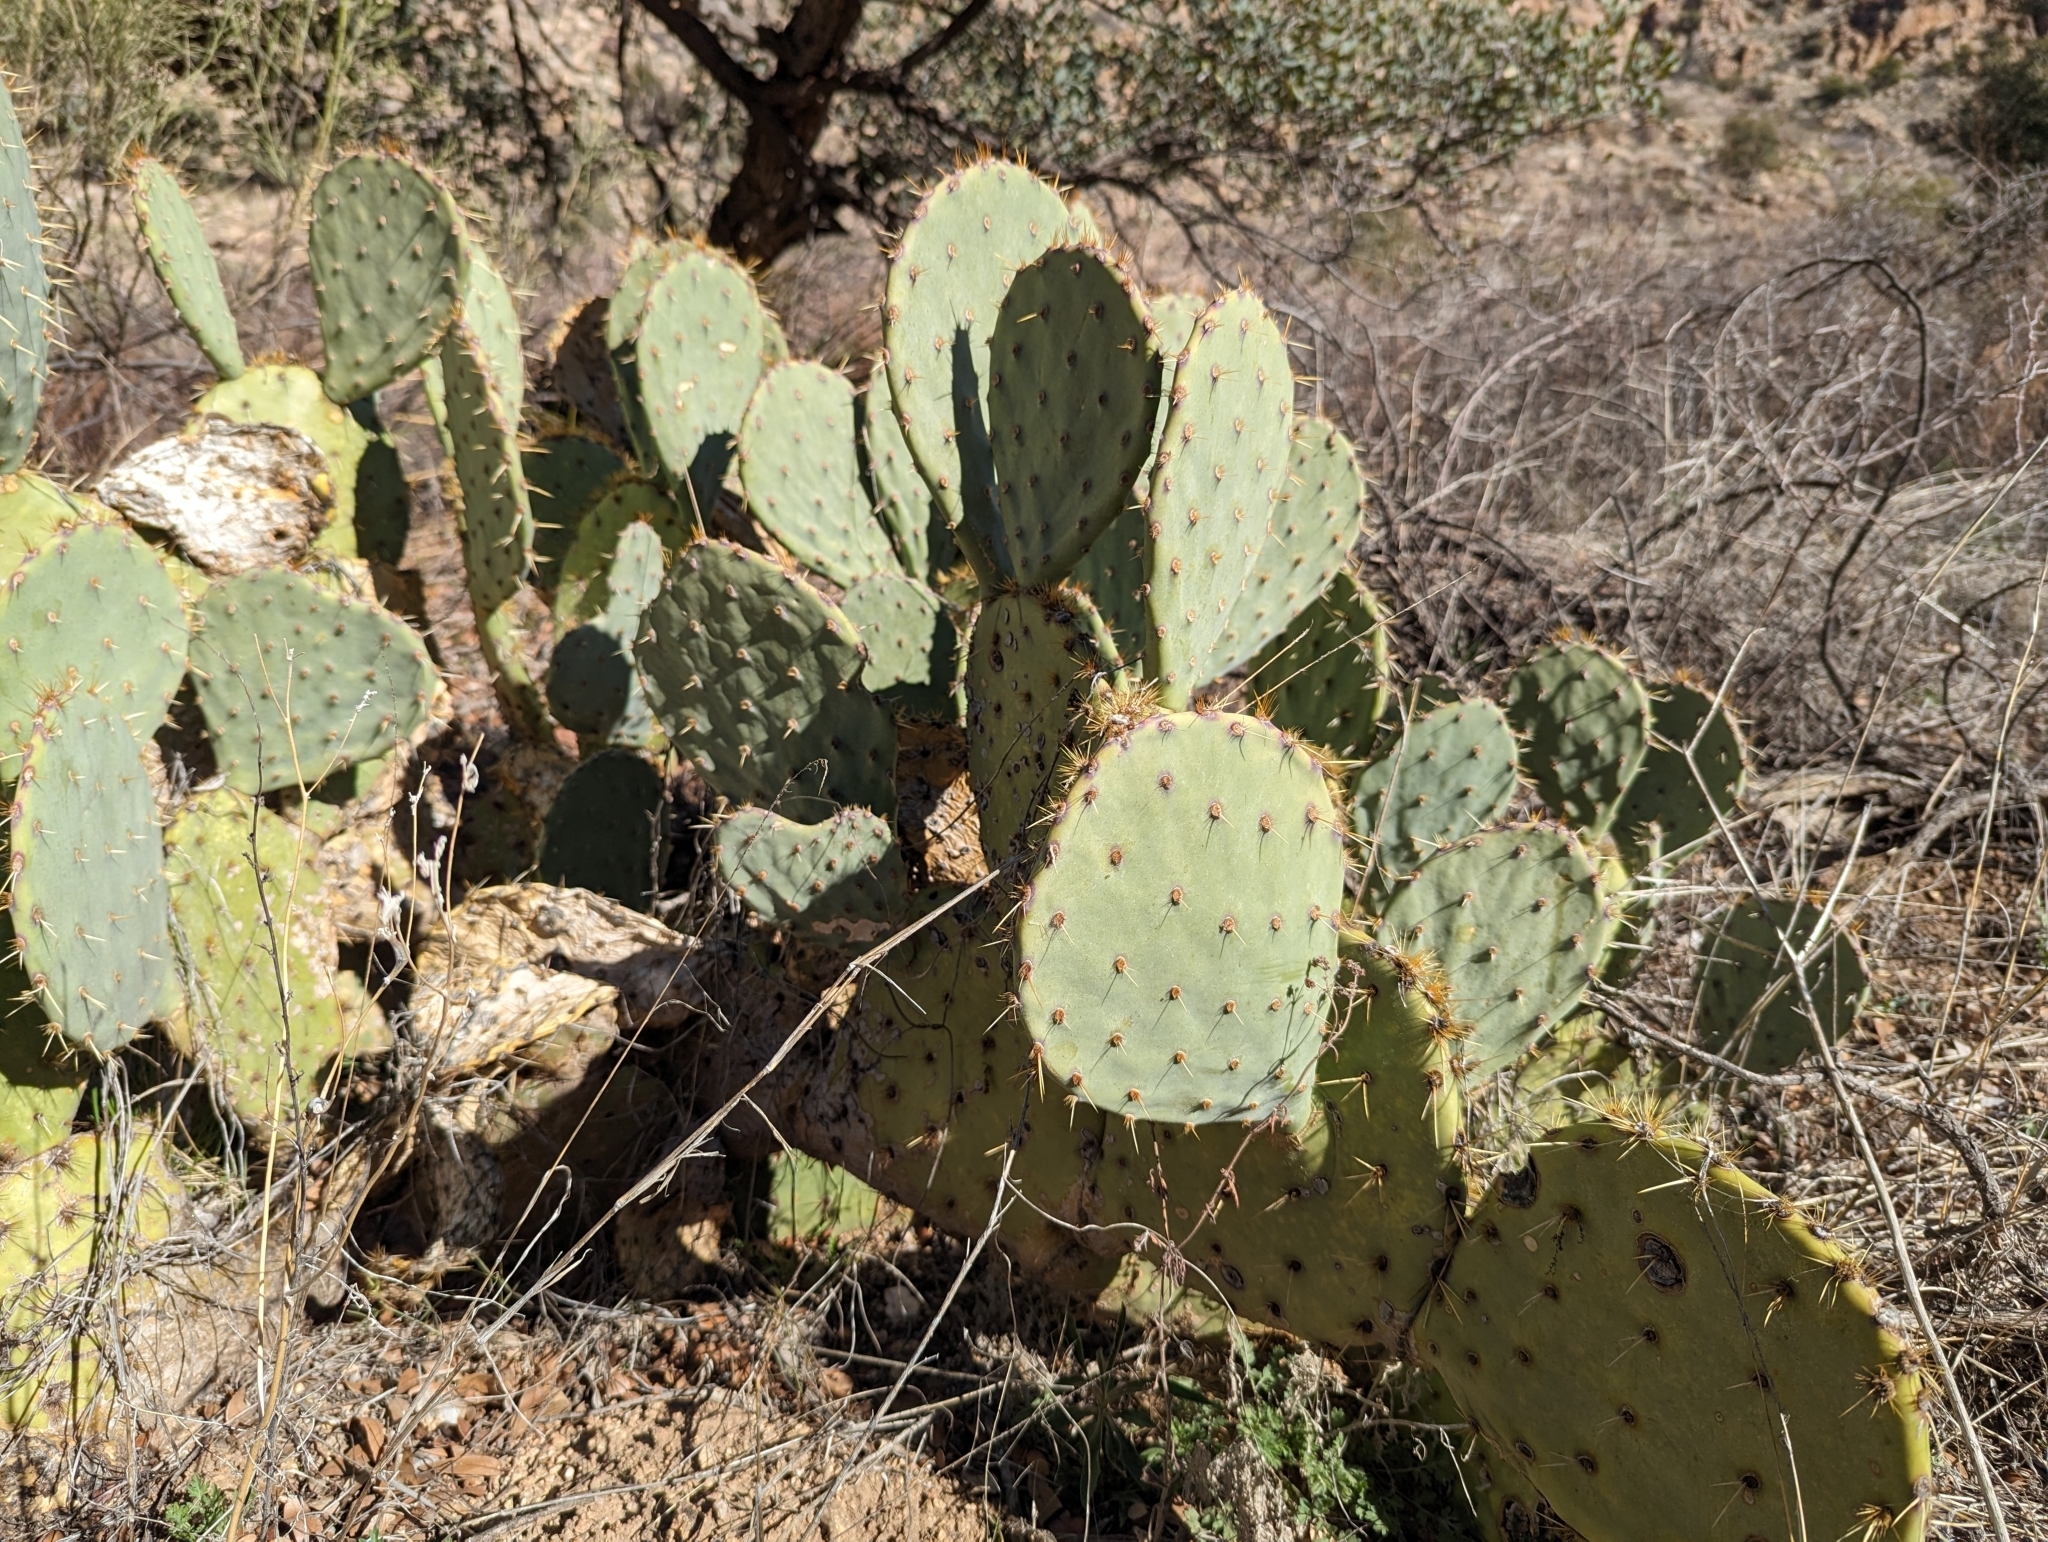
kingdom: Plantae
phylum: Tracheophyta
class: Magnoliopsida
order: Caryophyllales
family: Cactaceae
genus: Opuntia
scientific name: Opuntia engelmannii
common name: Cactus-apple
